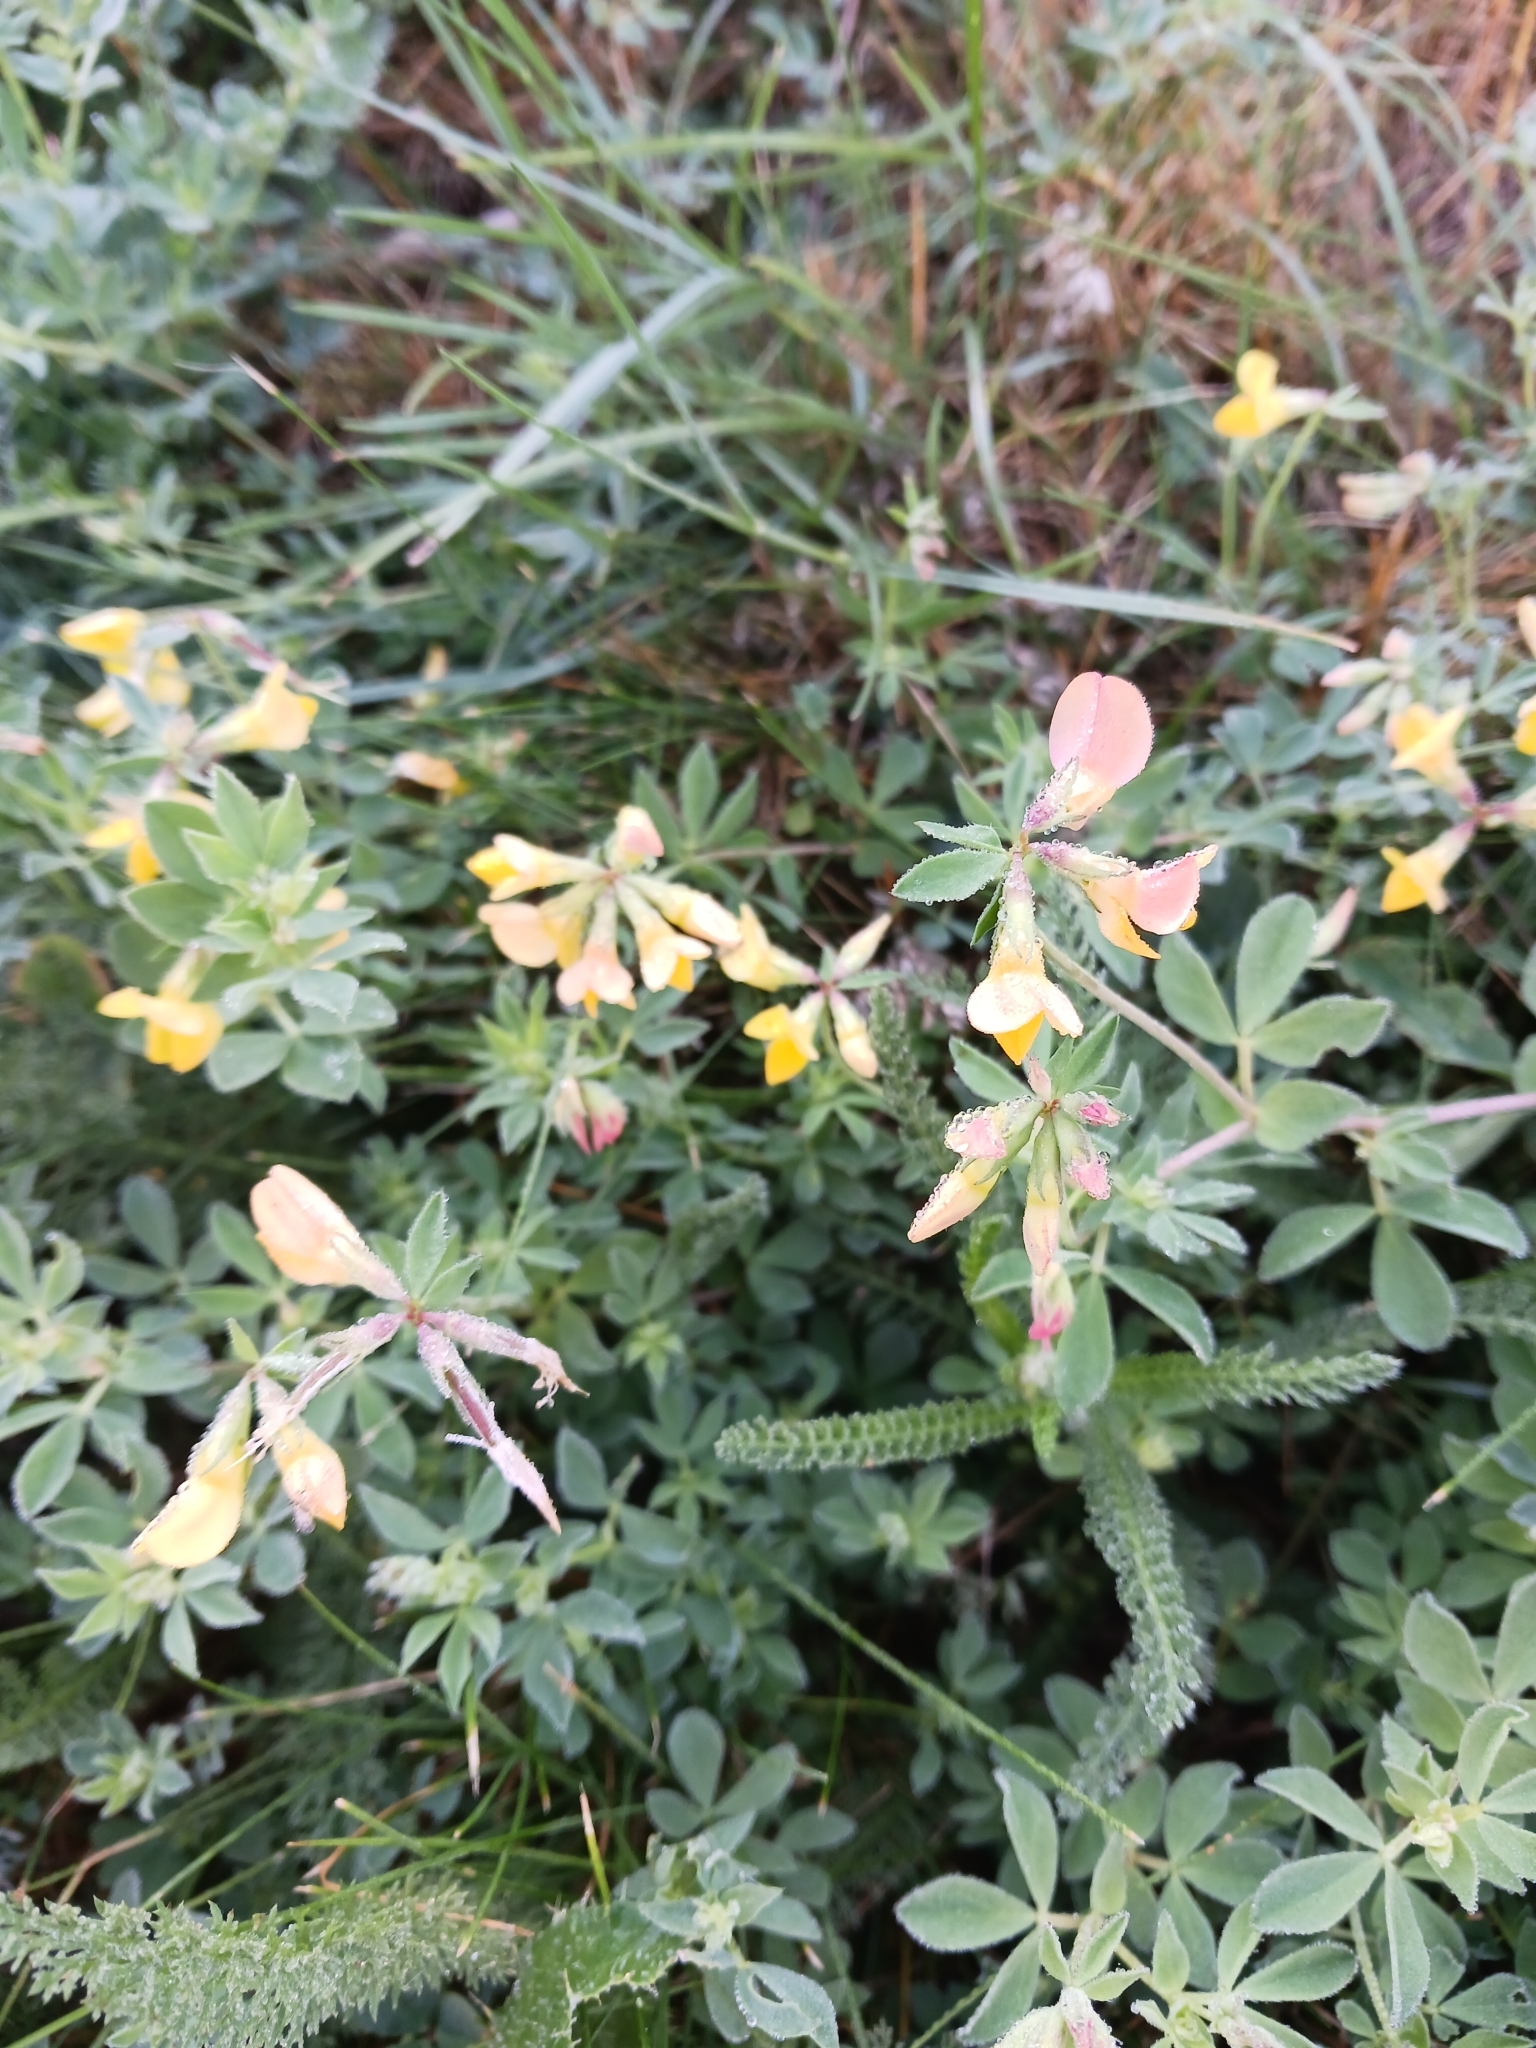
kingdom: Plantae
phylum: Tracheophyta
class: Magnoliopsida
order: Fabales
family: Fabaceae
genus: Lotus
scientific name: Lotus corniculatus
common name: Common bird's-foot-trefoil
